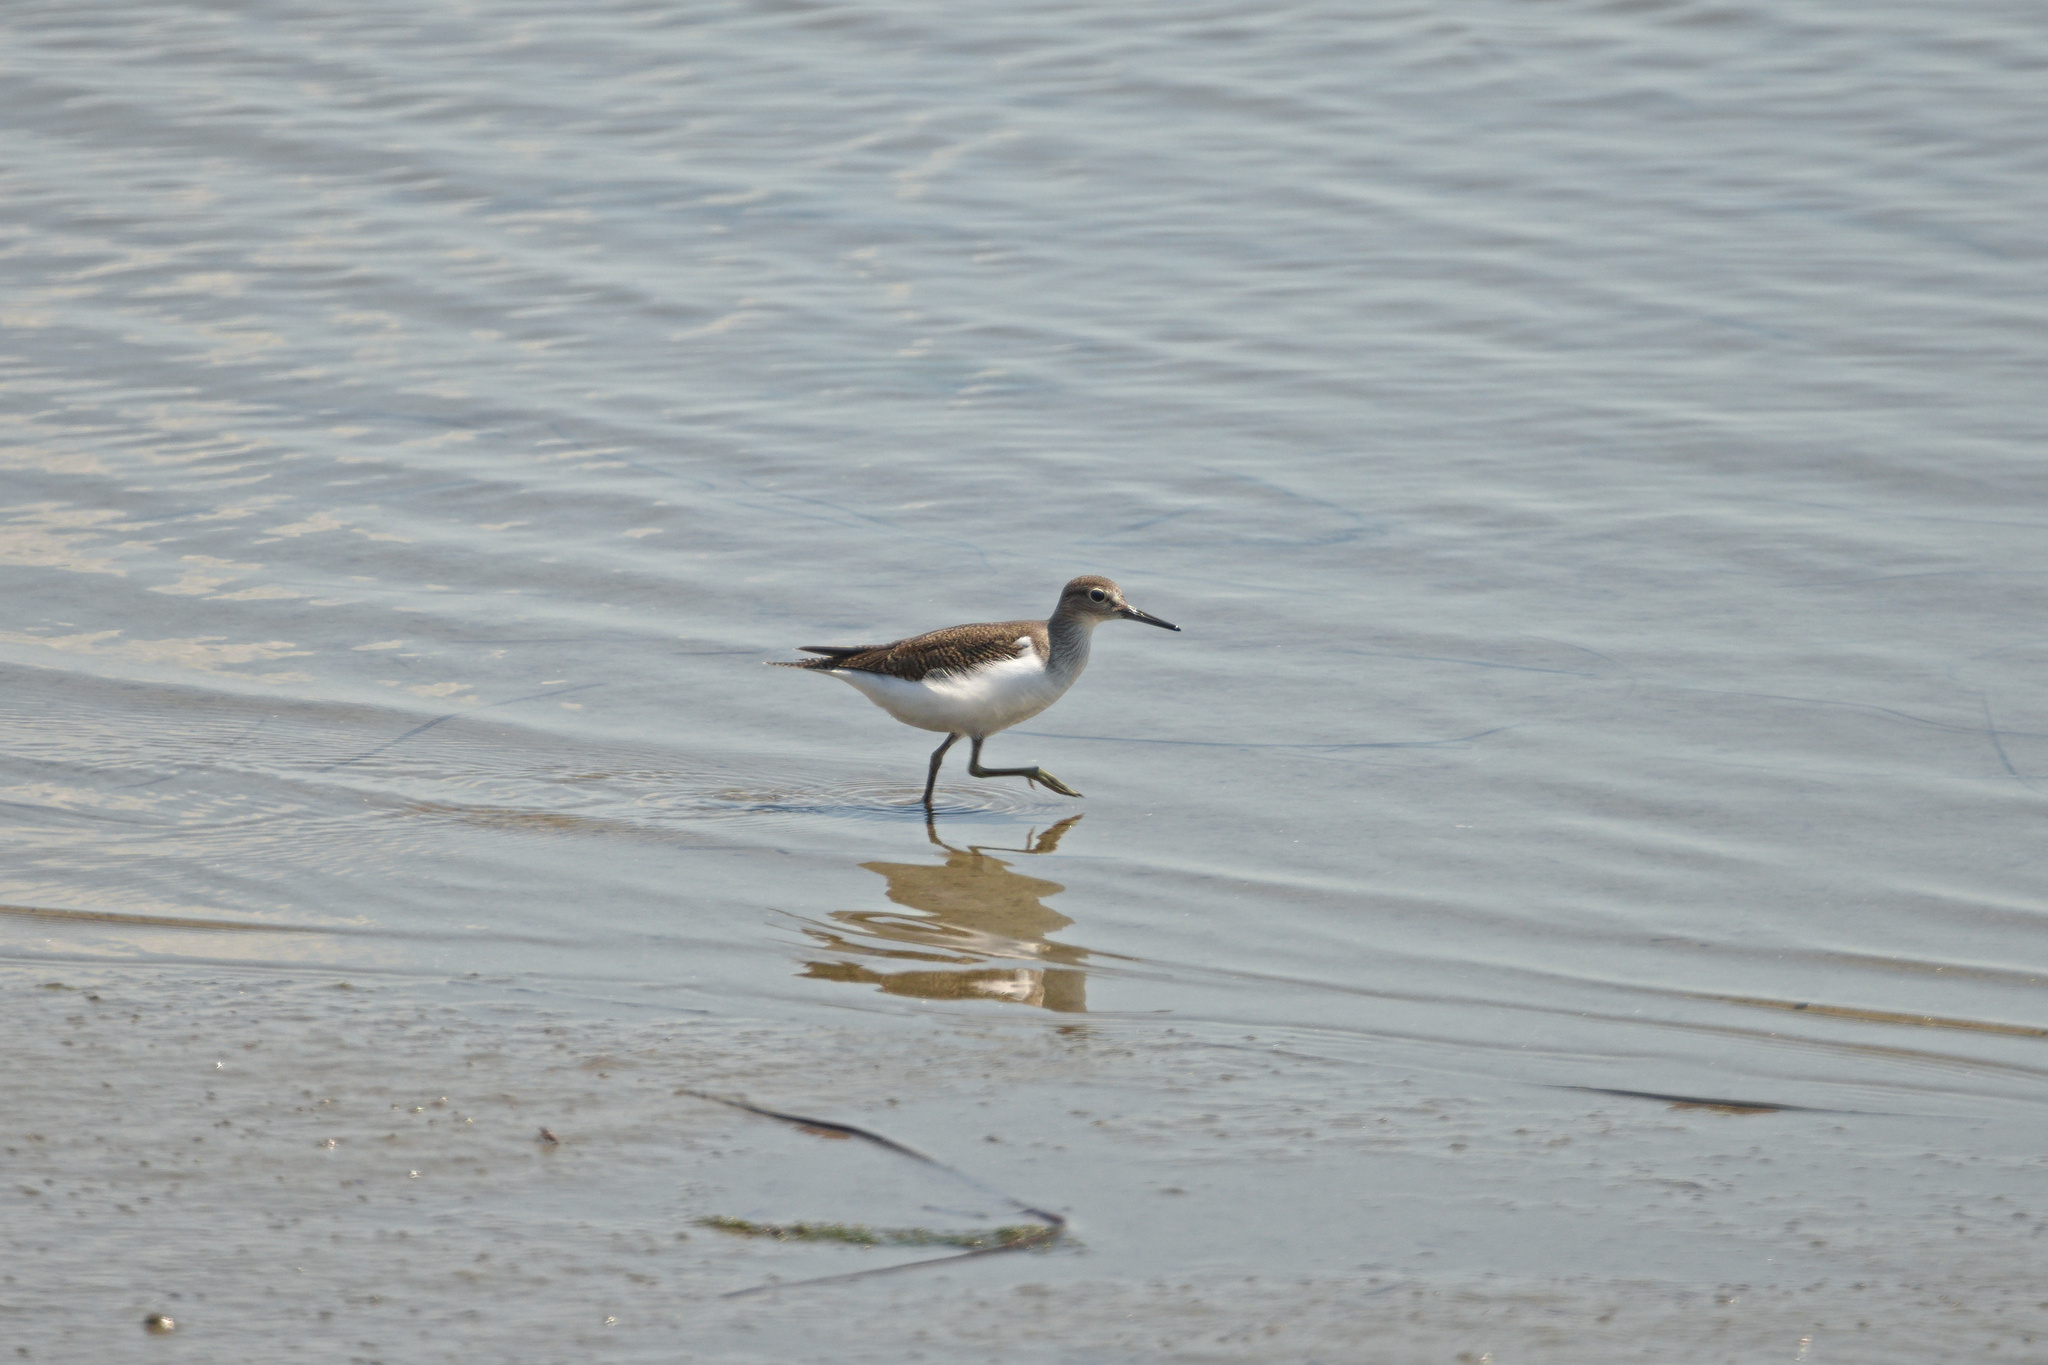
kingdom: Animalia
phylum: Chordata
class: Aves
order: Charadriiformes
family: Scolopacidae
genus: Actitis
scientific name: Actitis hypoleucos
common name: Common sandpiper
